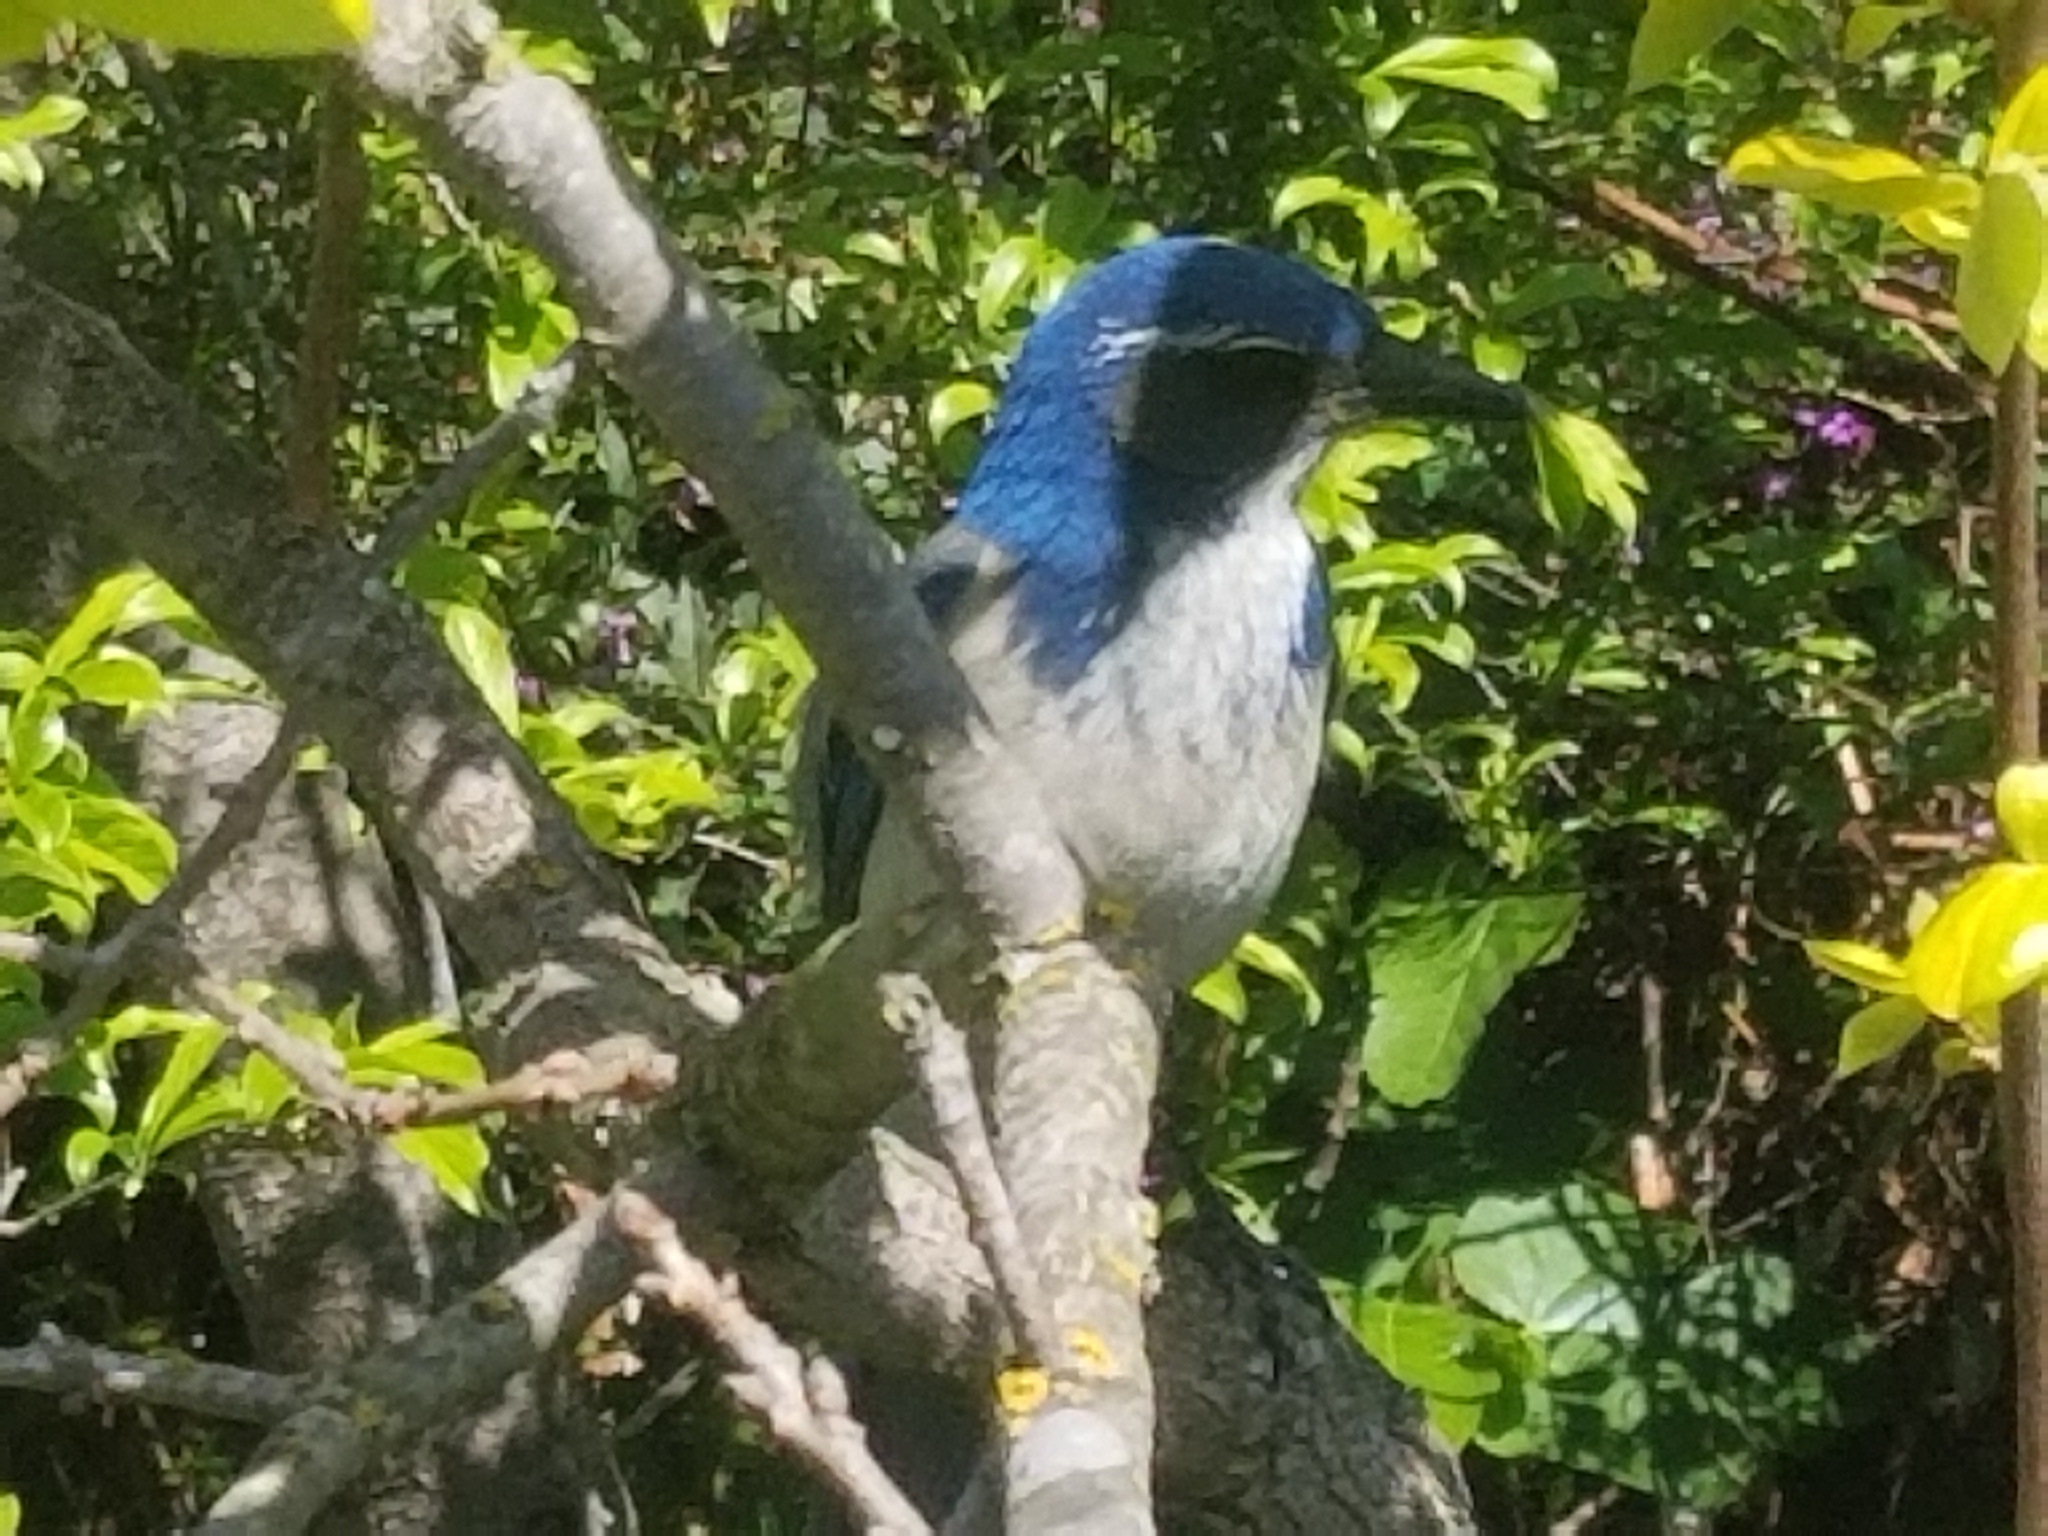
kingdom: Animalia
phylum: Chordata
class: Aves
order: Passeriformes
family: Corvidae
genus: Aphelocoma
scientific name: Aphelocoma californica
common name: California scrub-jay
